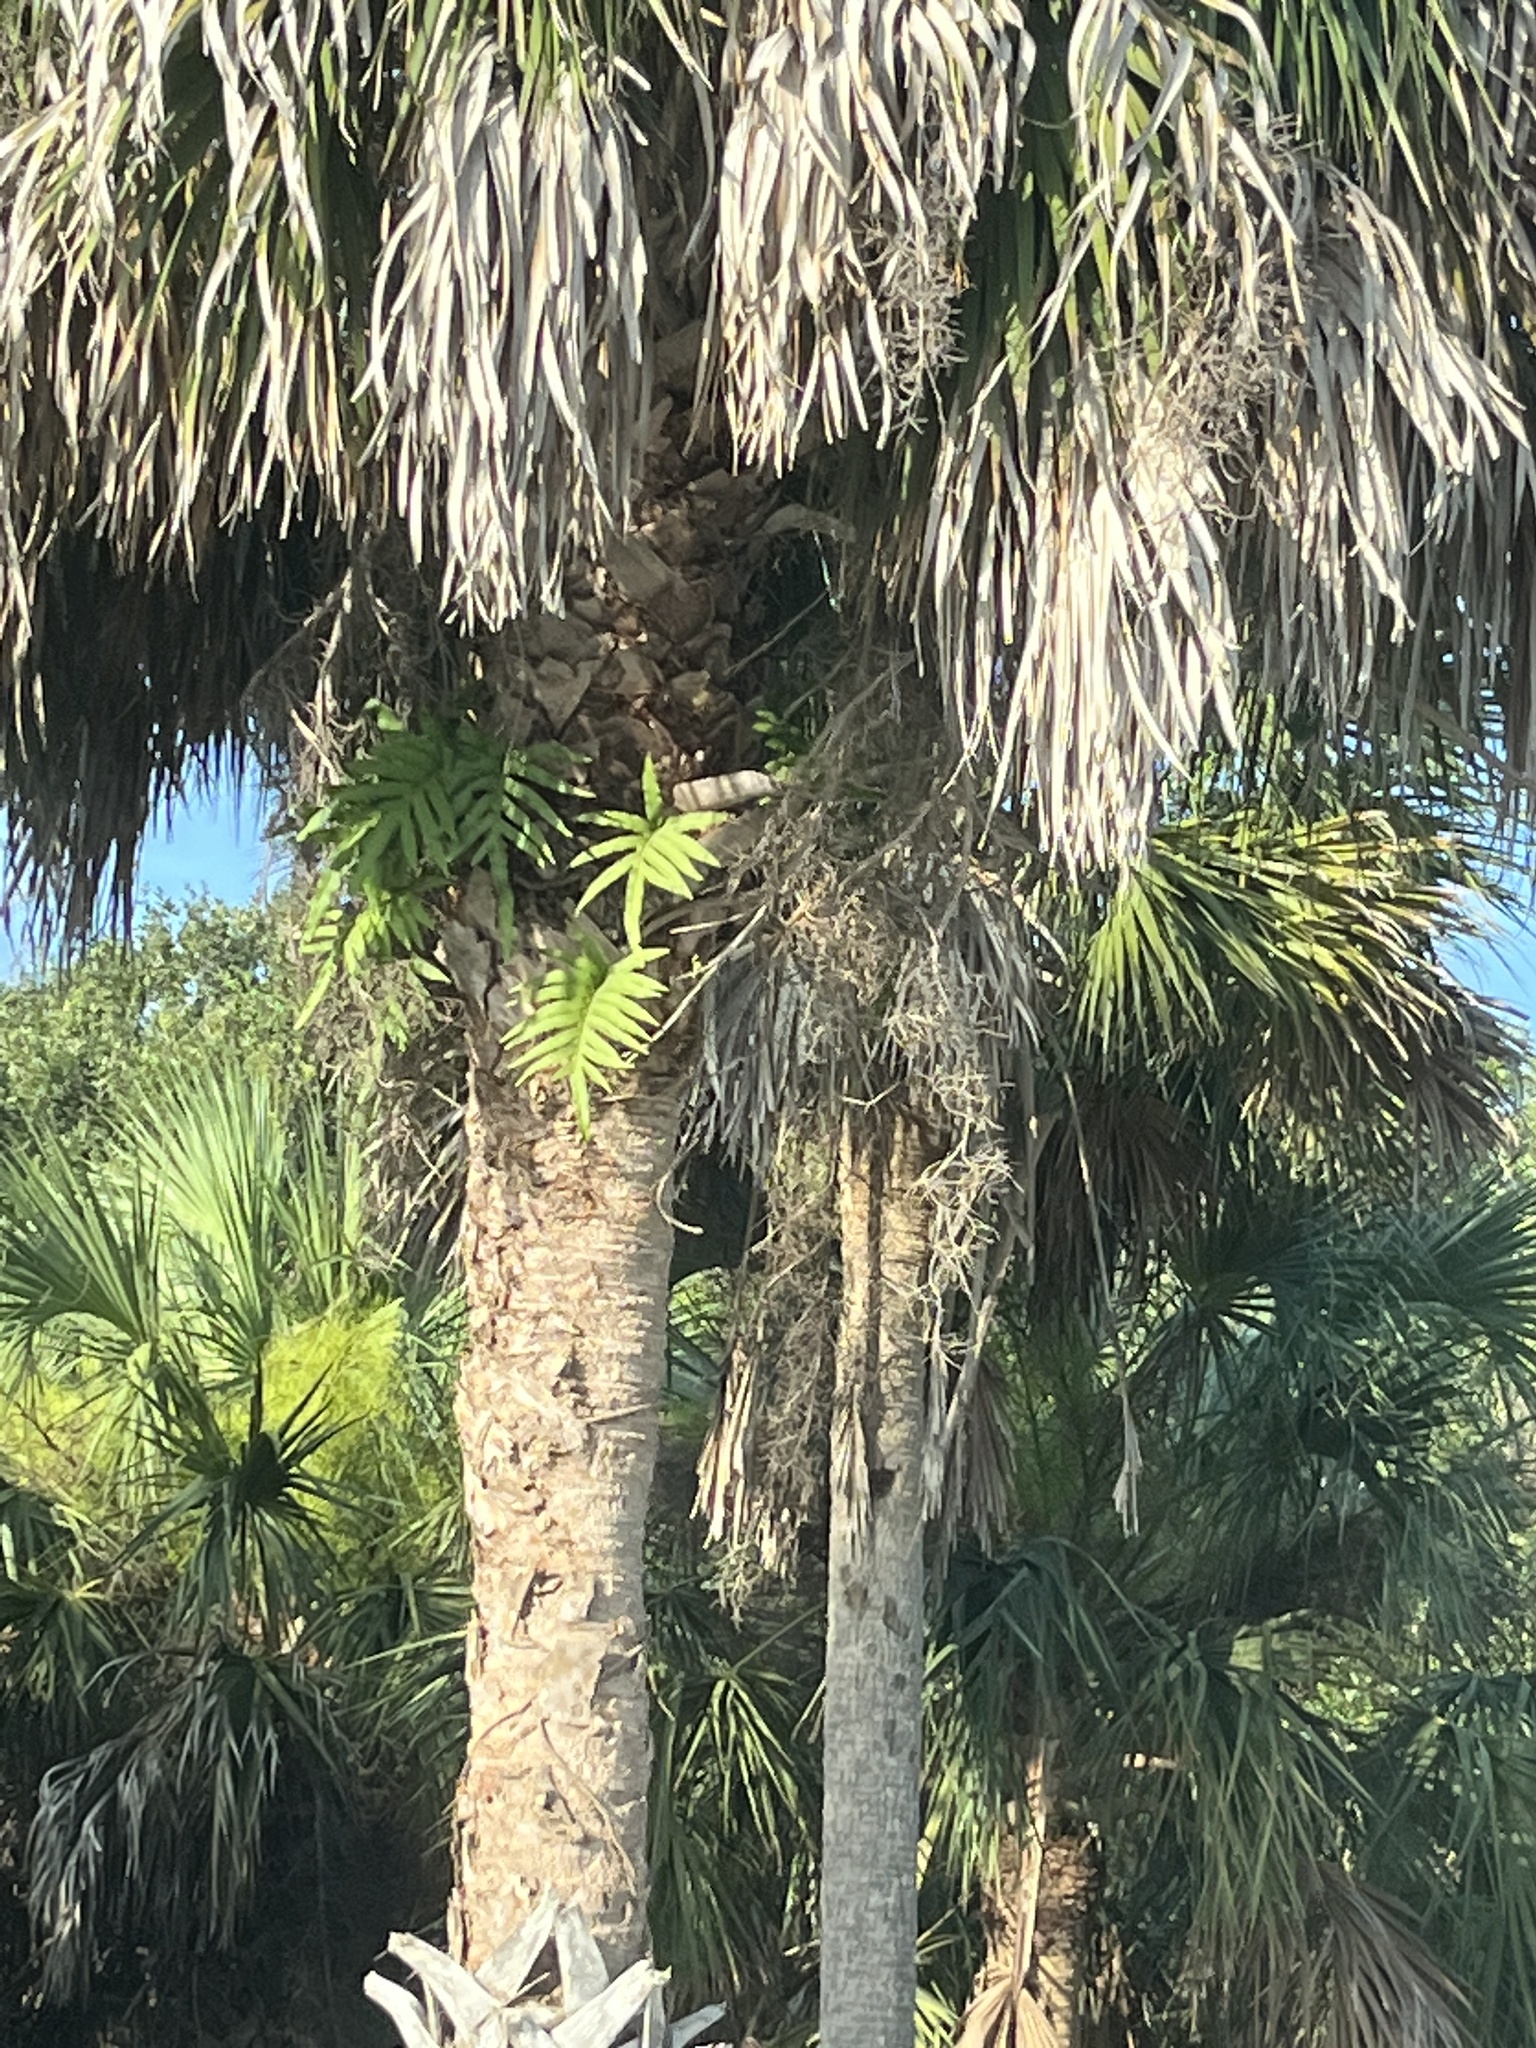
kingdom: Plantae
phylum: Tracheophyta
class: Polypodiopsida
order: Polypodiales
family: Polypodiaceae
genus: Phlebodium
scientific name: Phlebodium aureum
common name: Gold-foot fern
